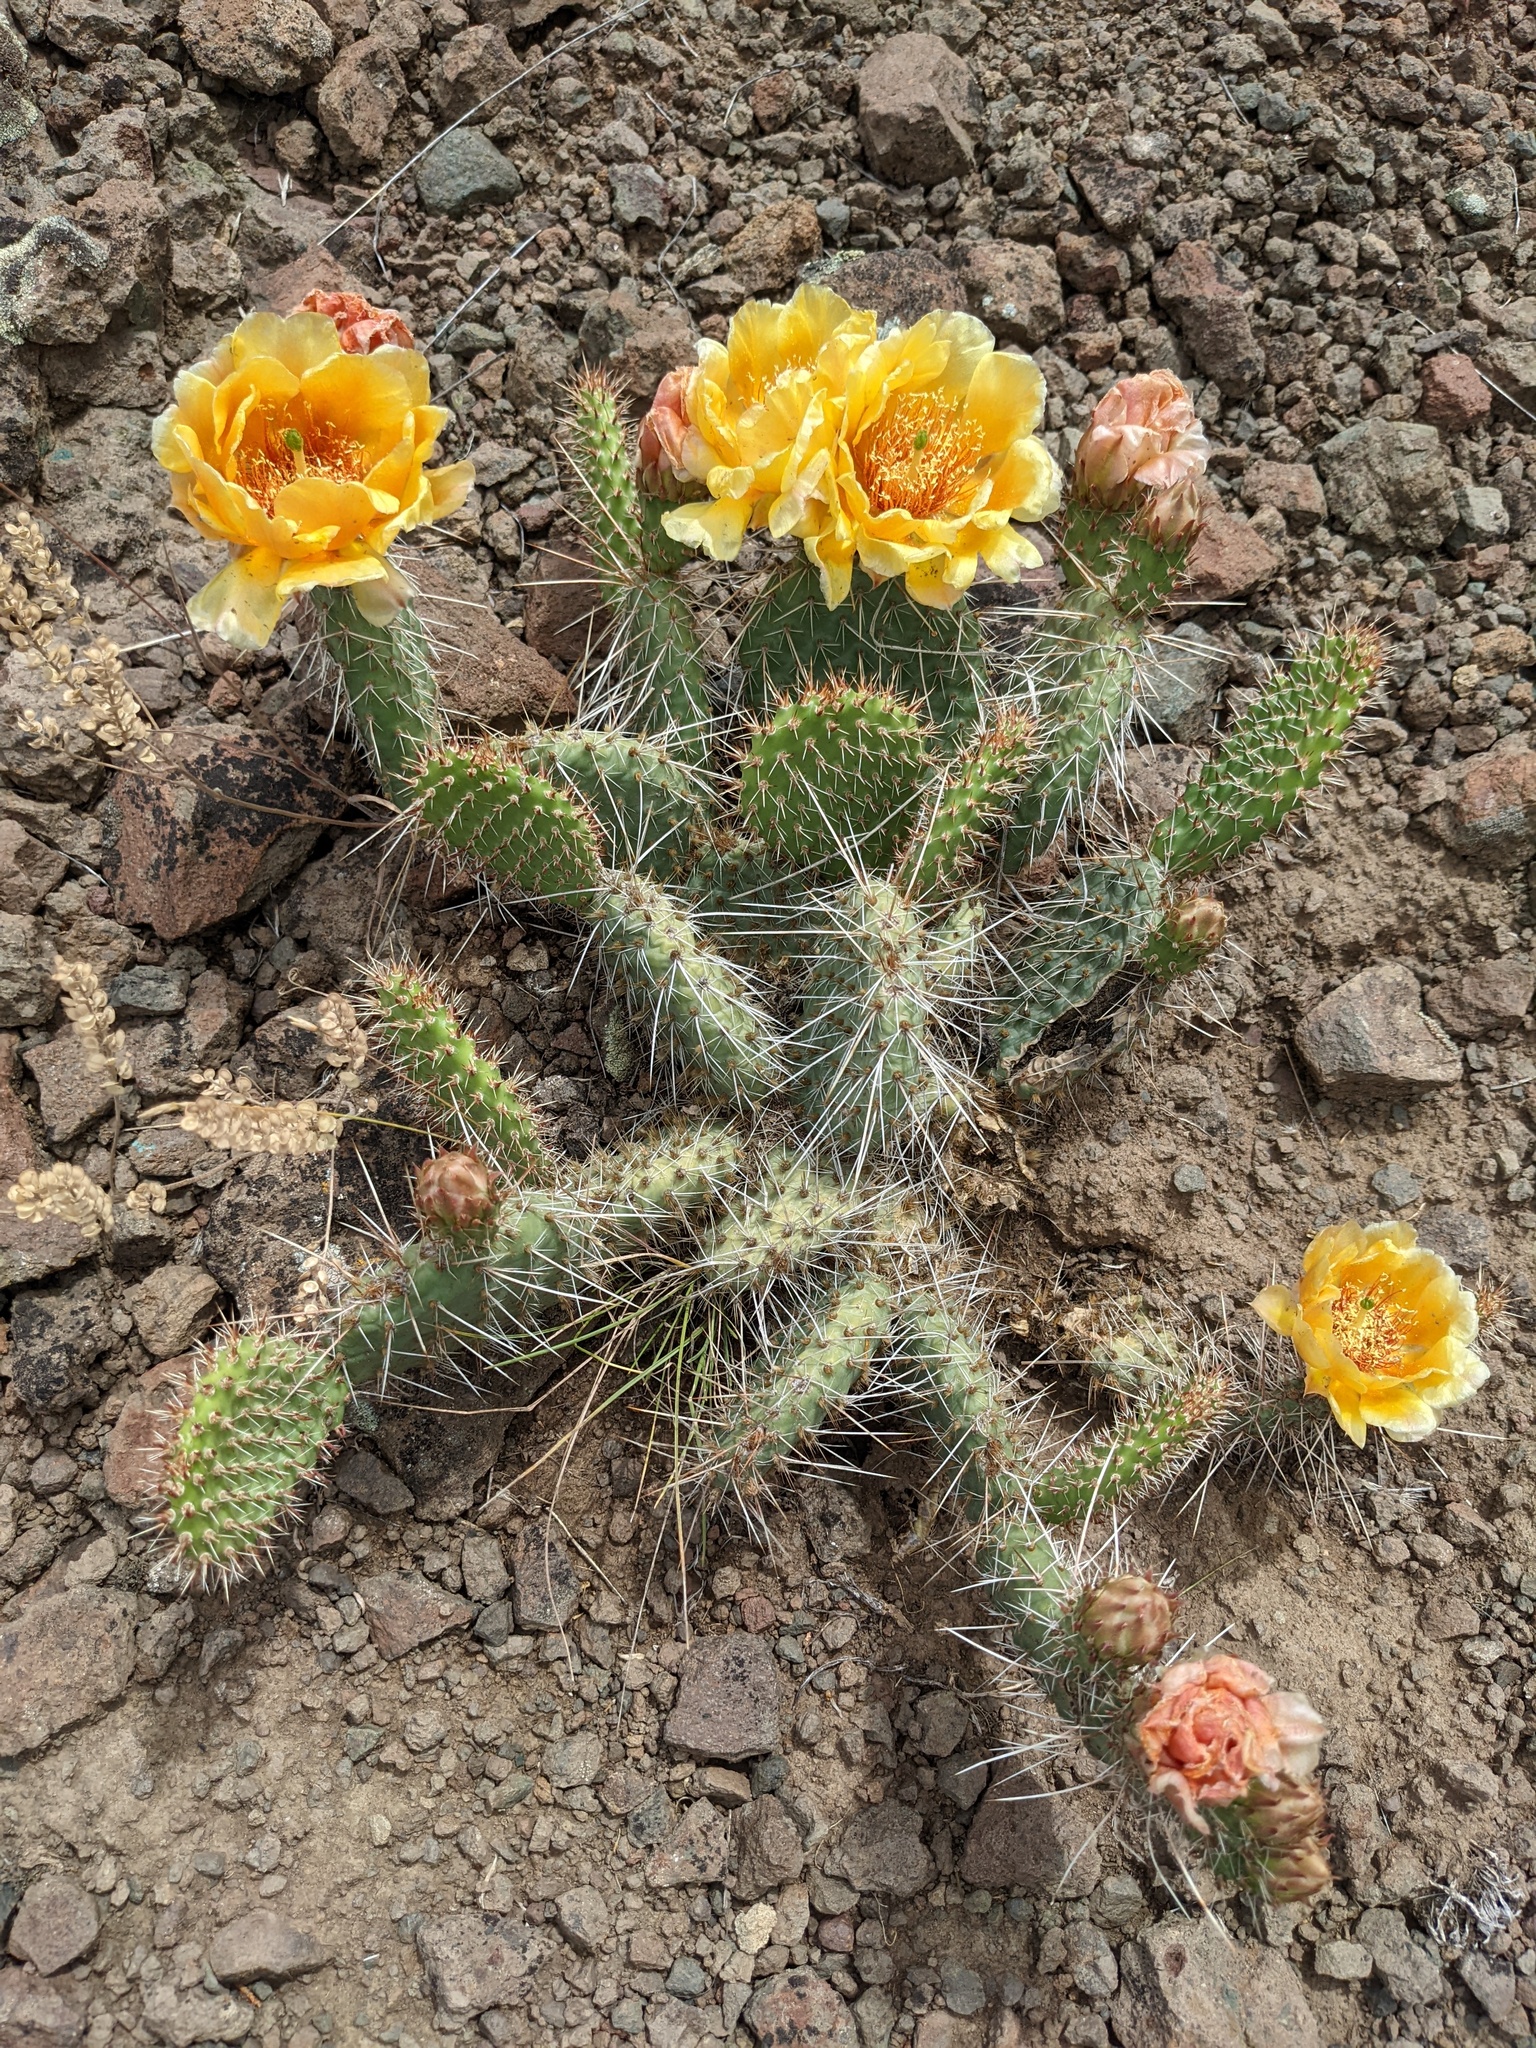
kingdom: Plantae
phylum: Tracheophyta
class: Magnoliopsida
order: Caryophyllales
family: Cactaceae
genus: Opuntia
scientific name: Opuntia polyacantha
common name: Plains prickly-pear
